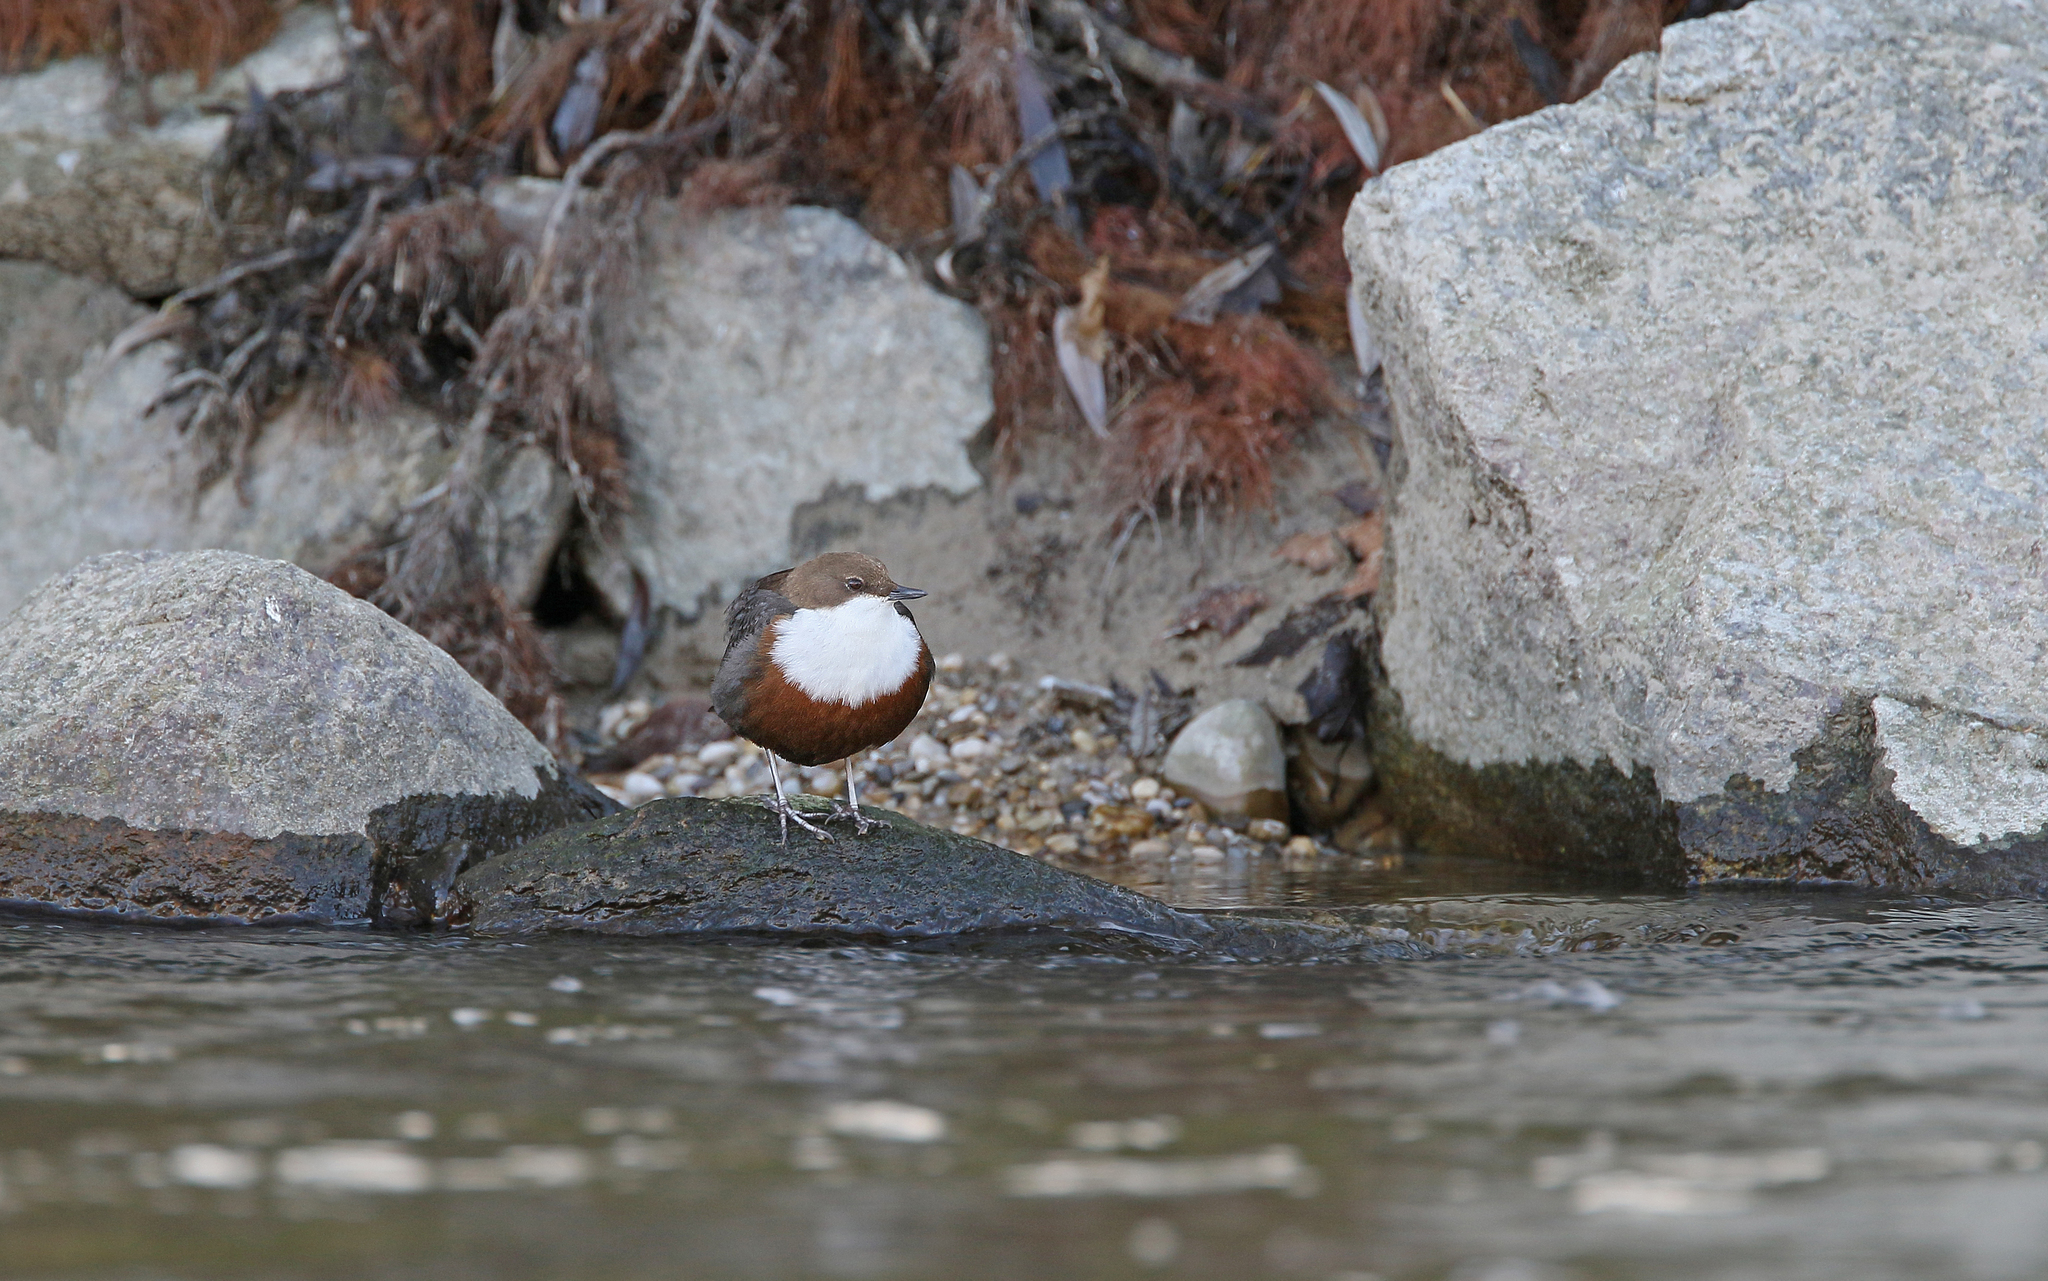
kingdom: Animalia
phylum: Chordata
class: Aves
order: Passeriformes
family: Cinclidae
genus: Cinclus
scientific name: Cinclus cinclus
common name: White-throated dipper
